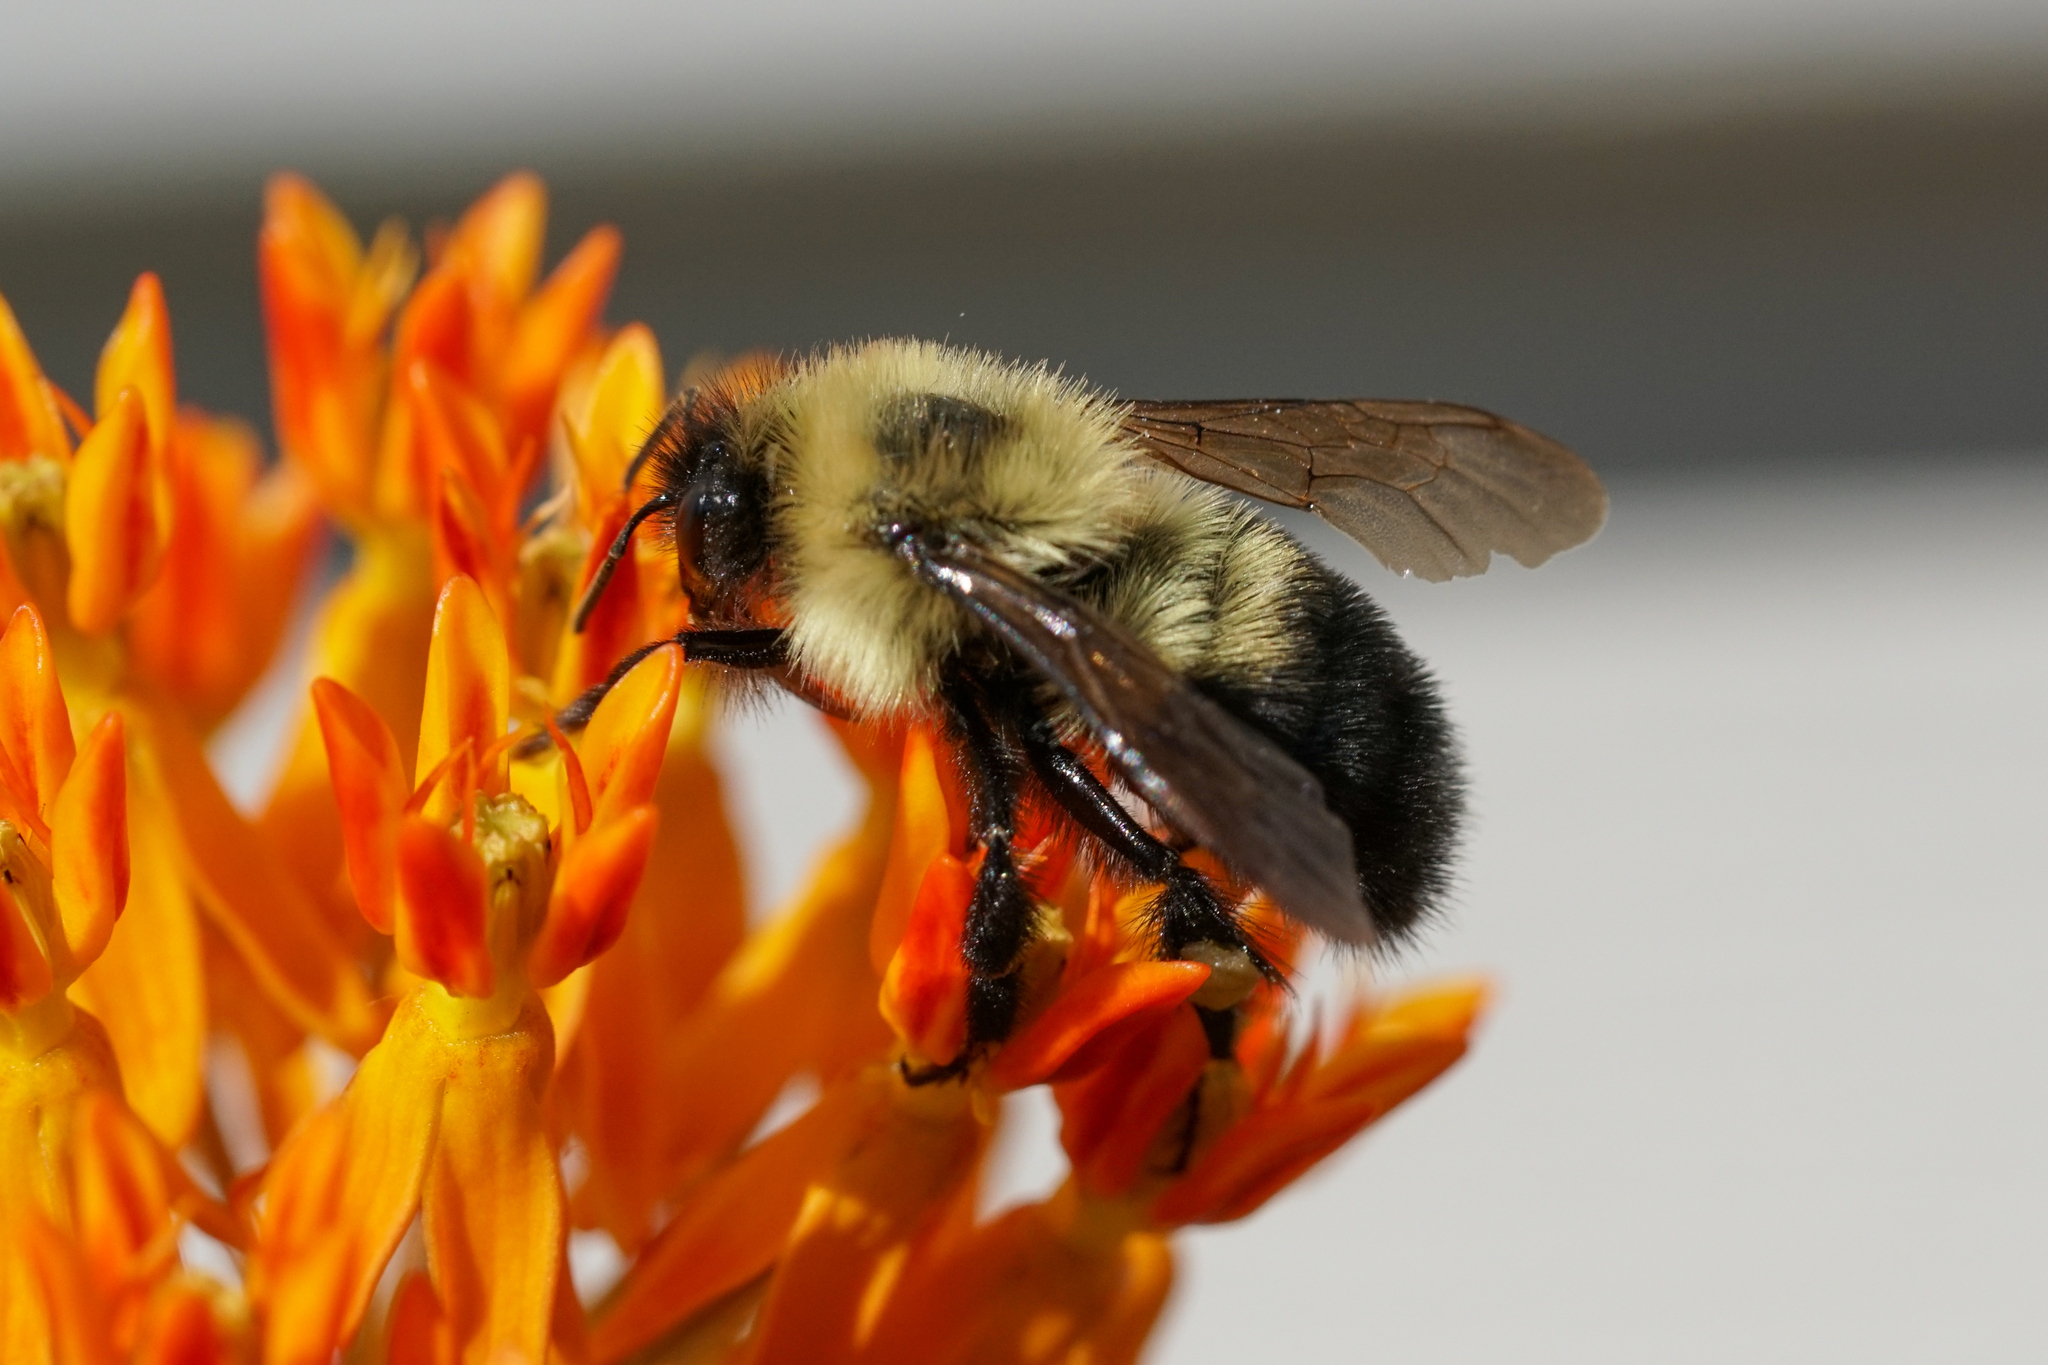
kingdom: Animalia
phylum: Arthropoda
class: Insecta
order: Hymenoptera
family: Apidae
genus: Bombus
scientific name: Bombus bimaculatus
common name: Two-spotted bumble bee
